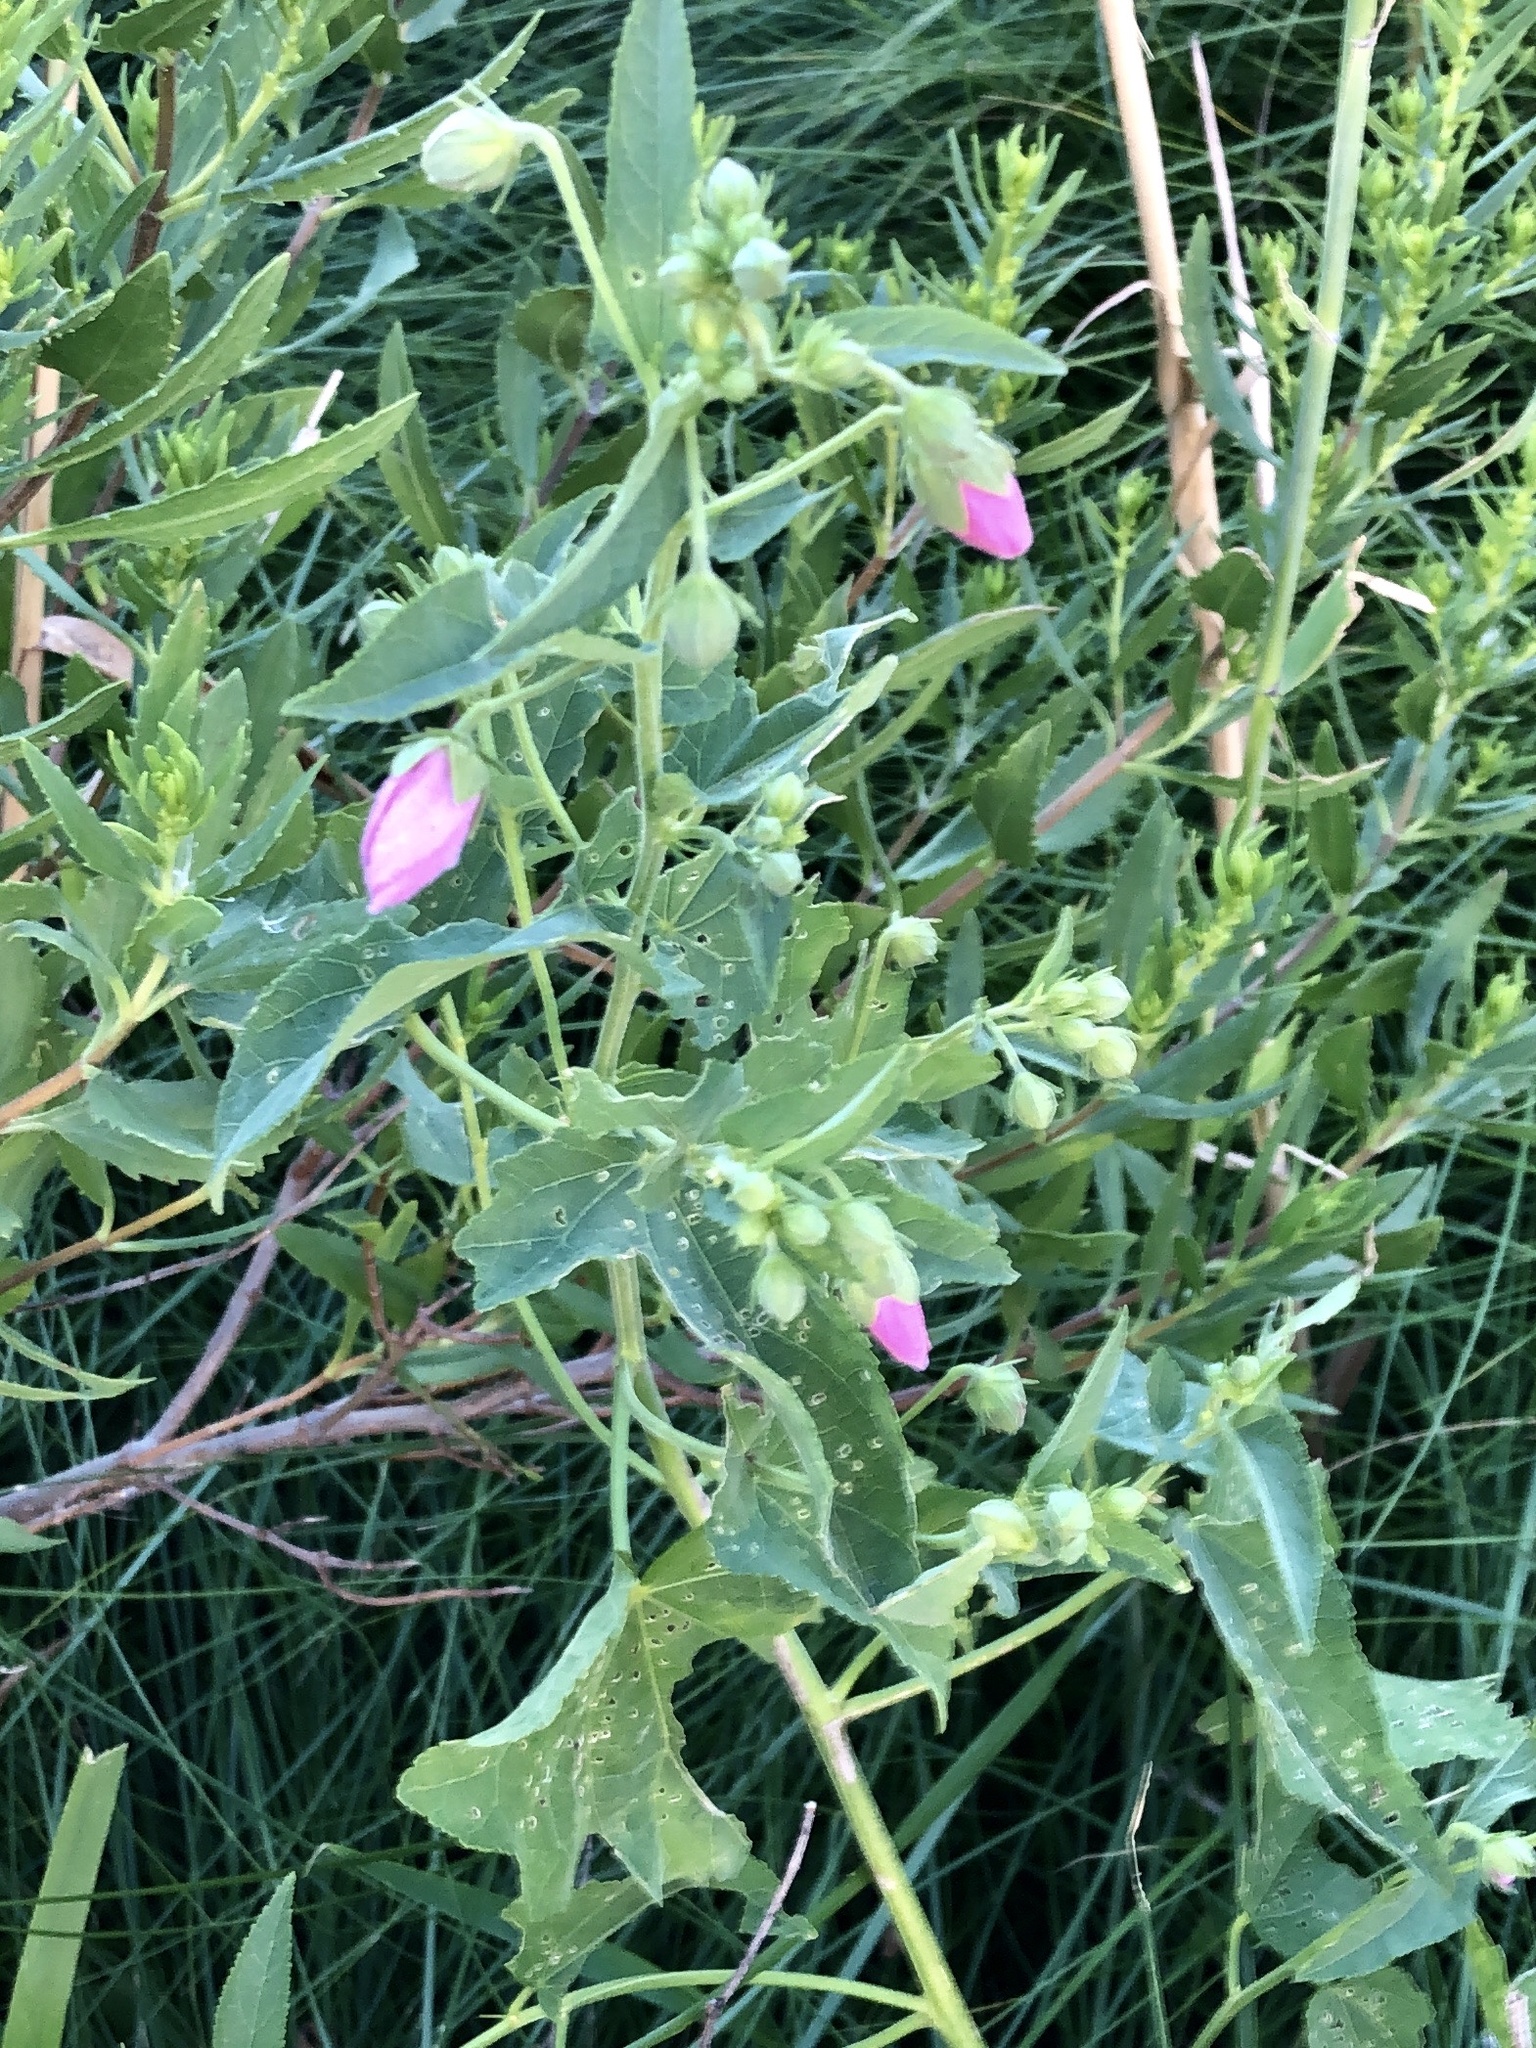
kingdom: Plantae
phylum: Tracheophyta
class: Magnoliopsida
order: Malvales
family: Malvaceae
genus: Kosteletzkya
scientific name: Kosteletzkya pentacarpos
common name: Virginia saltmarsh mallow
